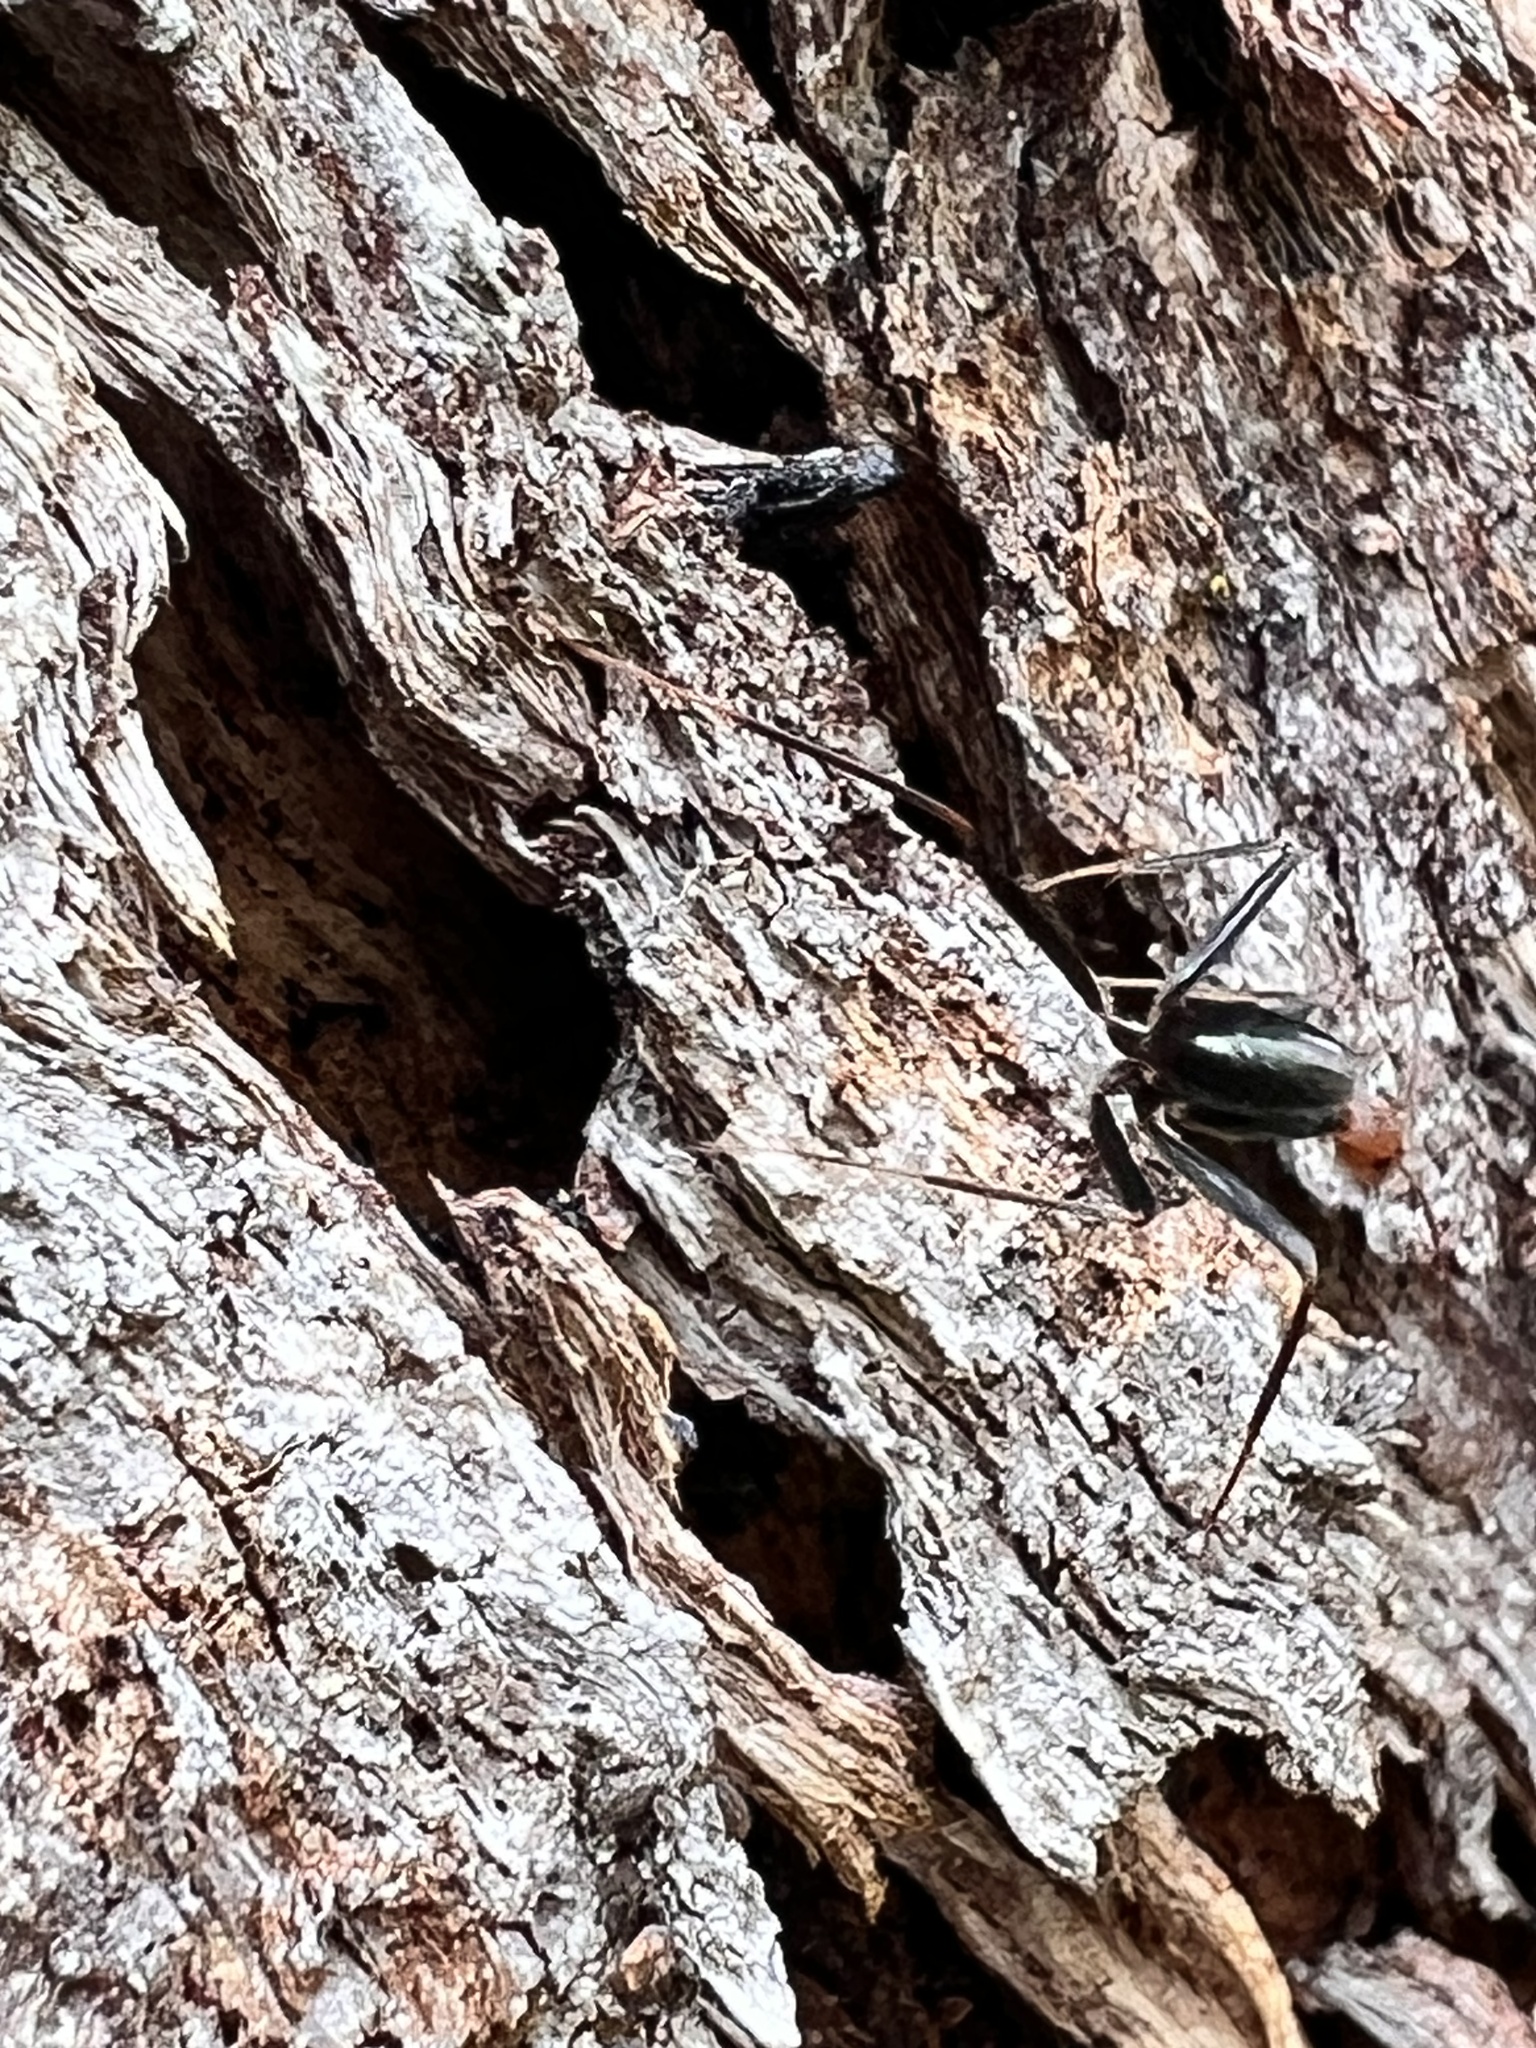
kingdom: Animalia
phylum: Arthropoda
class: Insecta
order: Hymenoptera
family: Formicidae
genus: Leptomyrmex
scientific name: Leptomyrmex erythrocephalus
